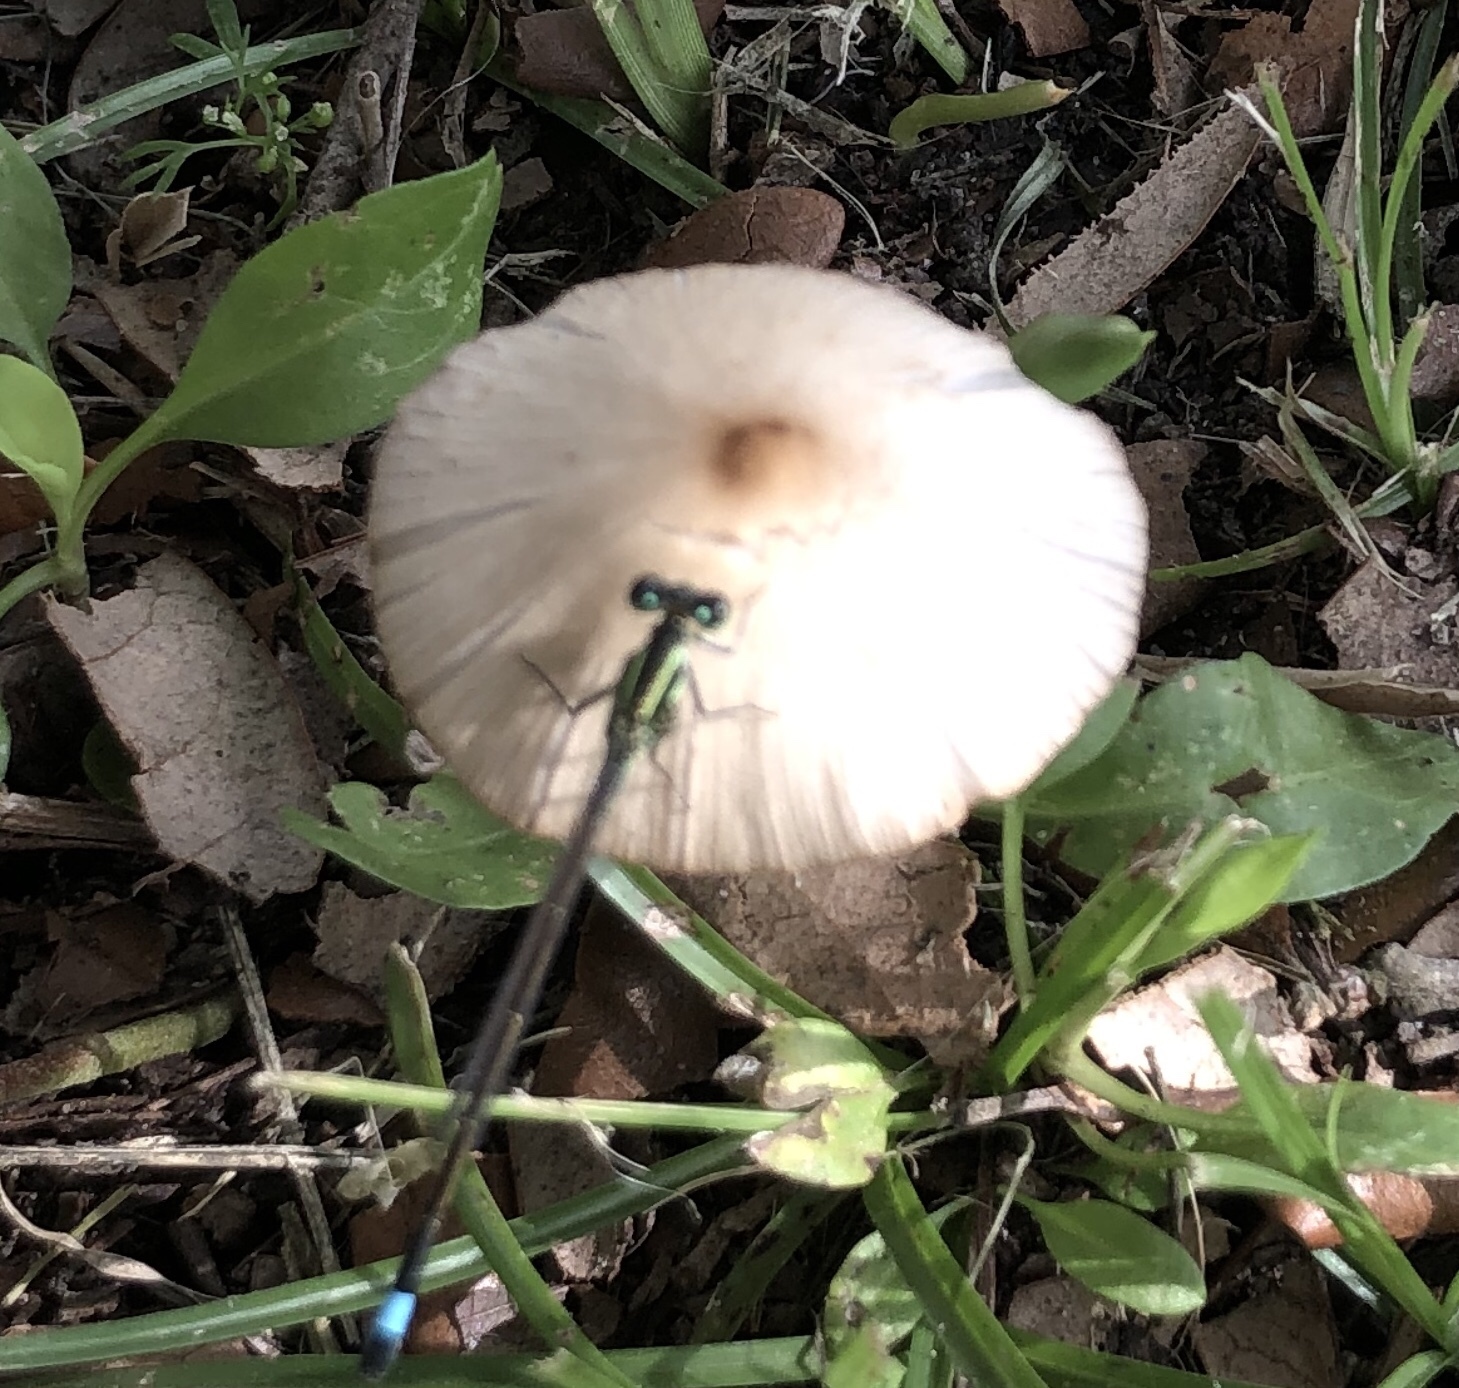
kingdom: Animalia
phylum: Arthropoda
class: Insecta
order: Odonata
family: Coenagrionidae
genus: Ischnura
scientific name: Ischnura ramburii
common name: Rambur's forktail
